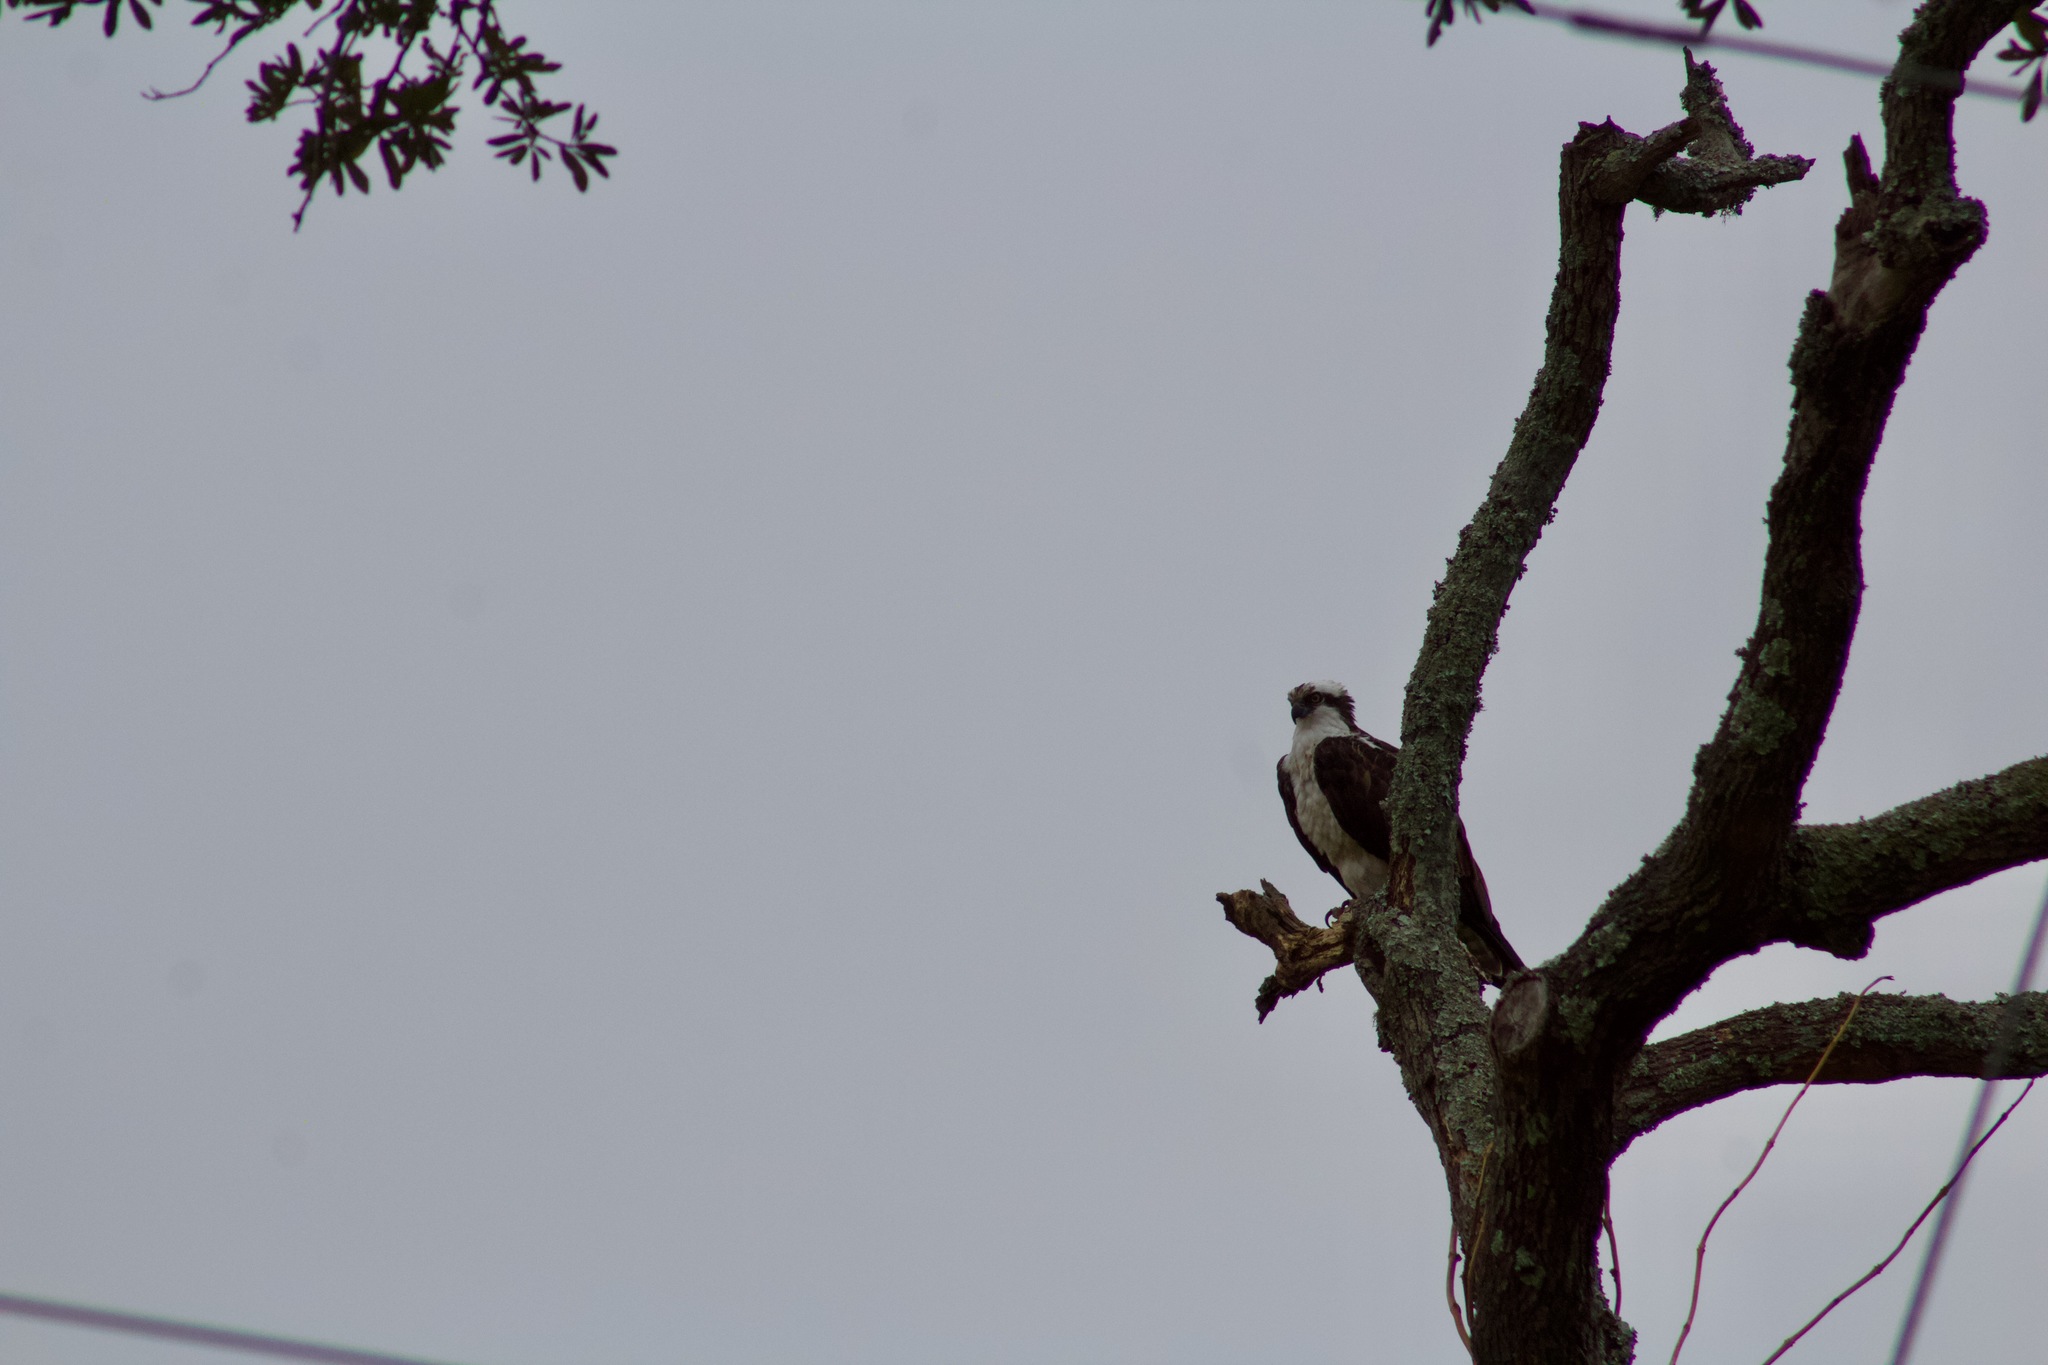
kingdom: Animalia
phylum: Chordata
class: Aves
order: Accipitriformes
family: Pandionidae
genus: Pandion
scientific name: Pandion haliaetus
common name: Osprey
